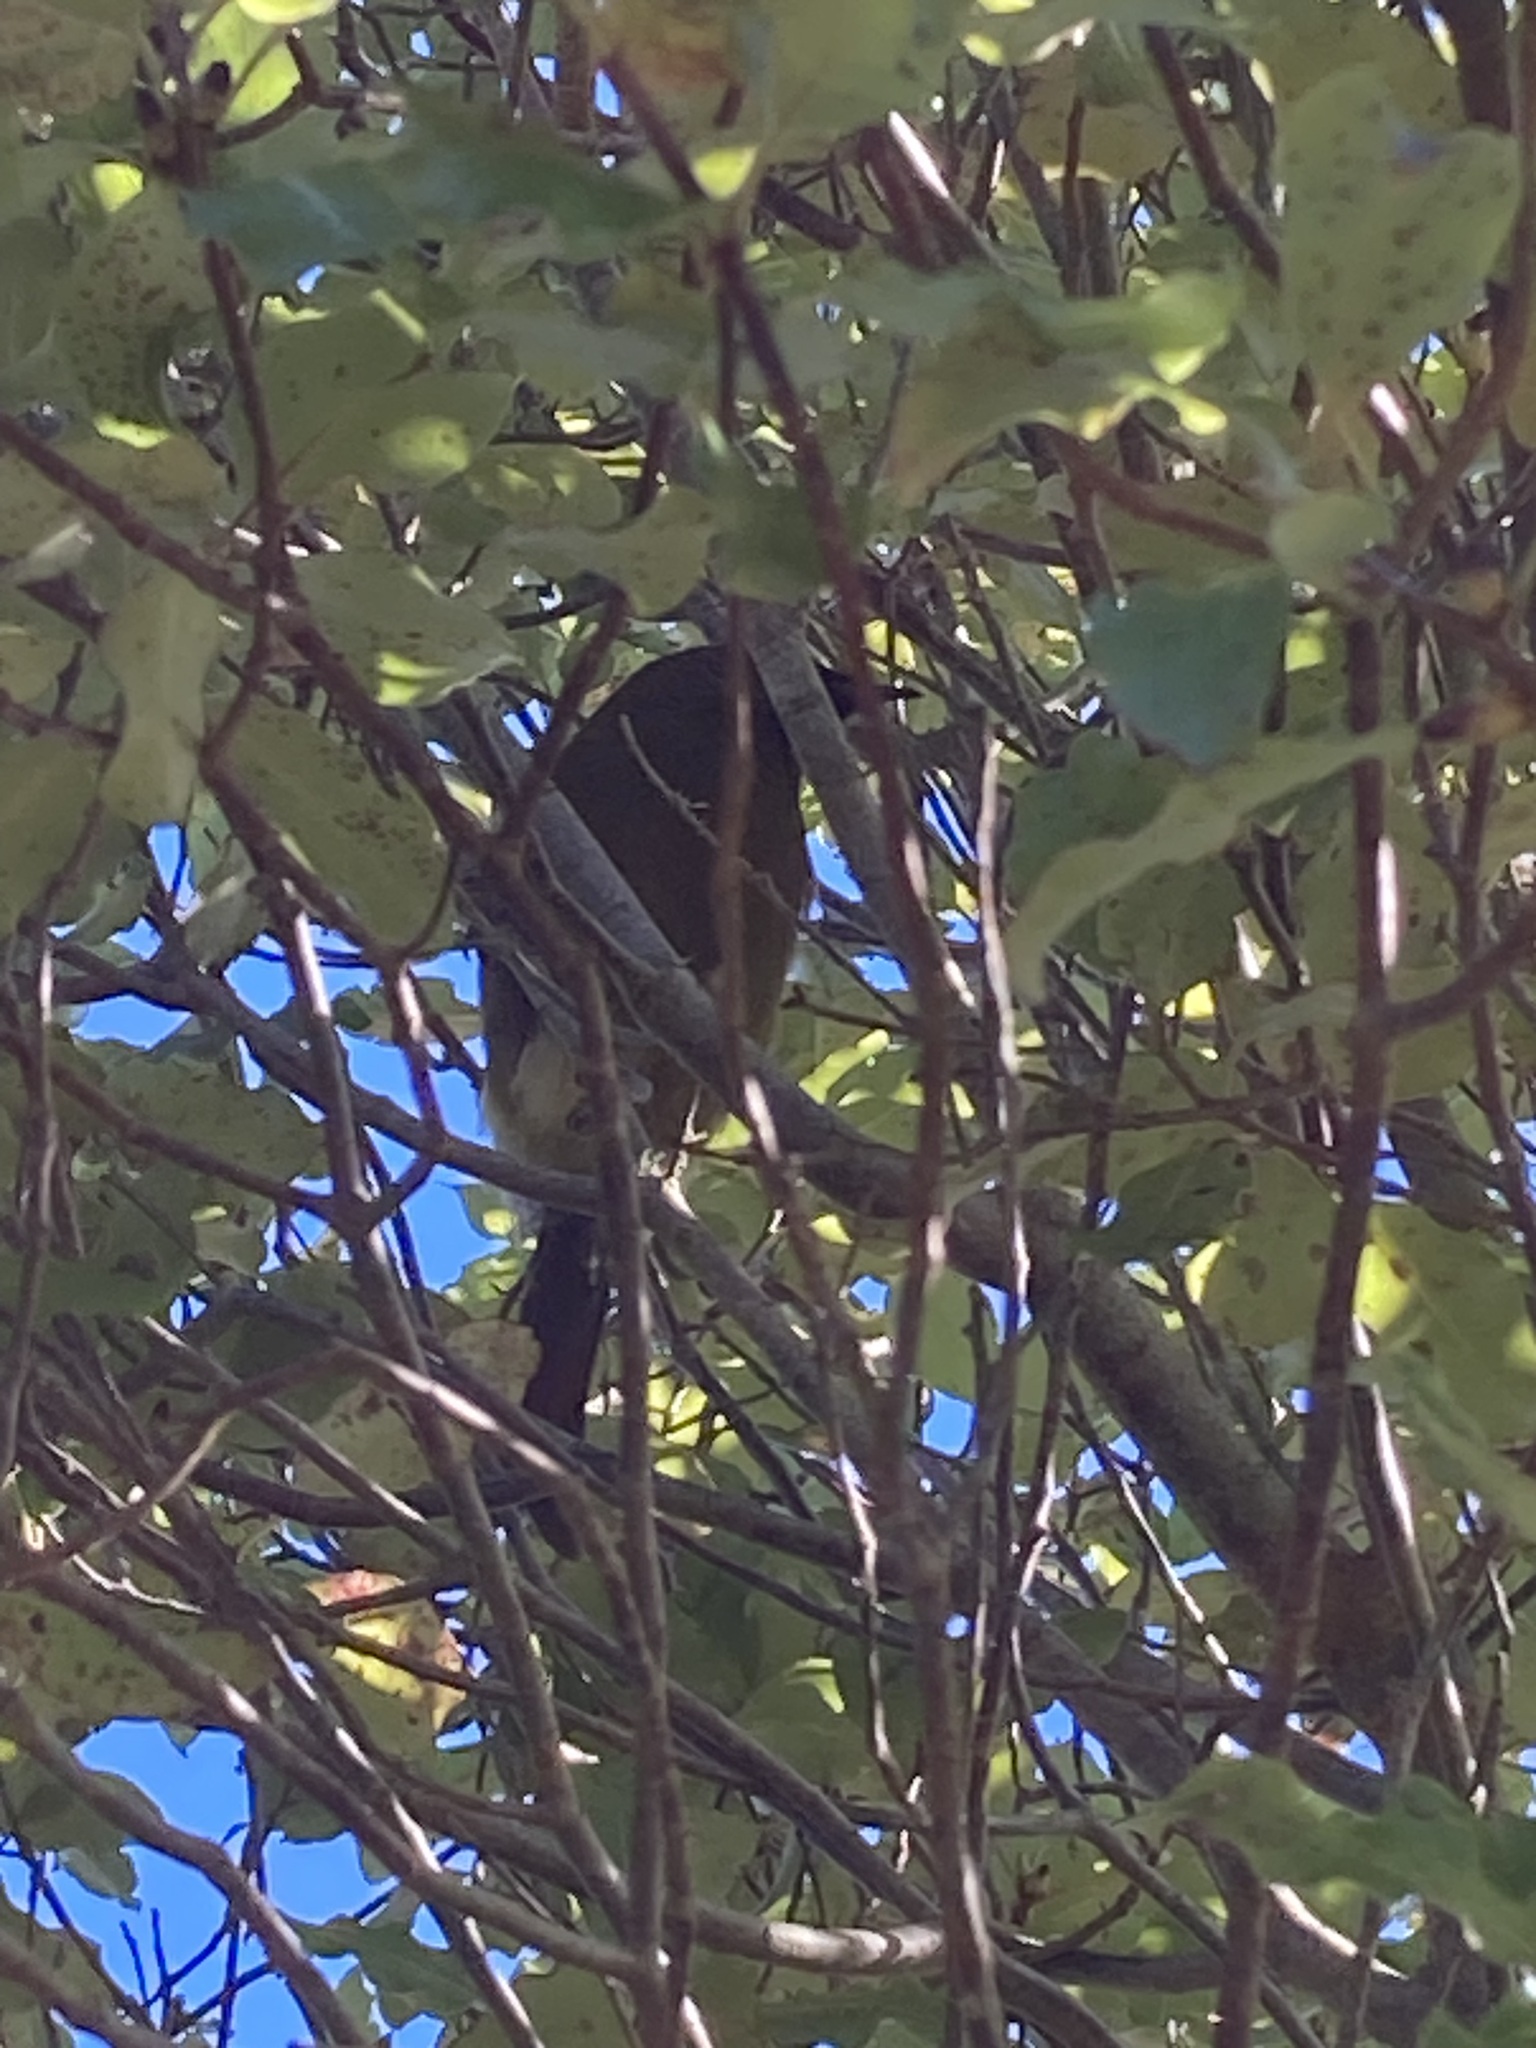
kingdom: Animalia
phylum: Chordata
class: Aves
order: Passeriformes
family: Meliphagidae
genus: Anthornis
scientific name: Anthornis melanura
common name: New zealand bellbird
